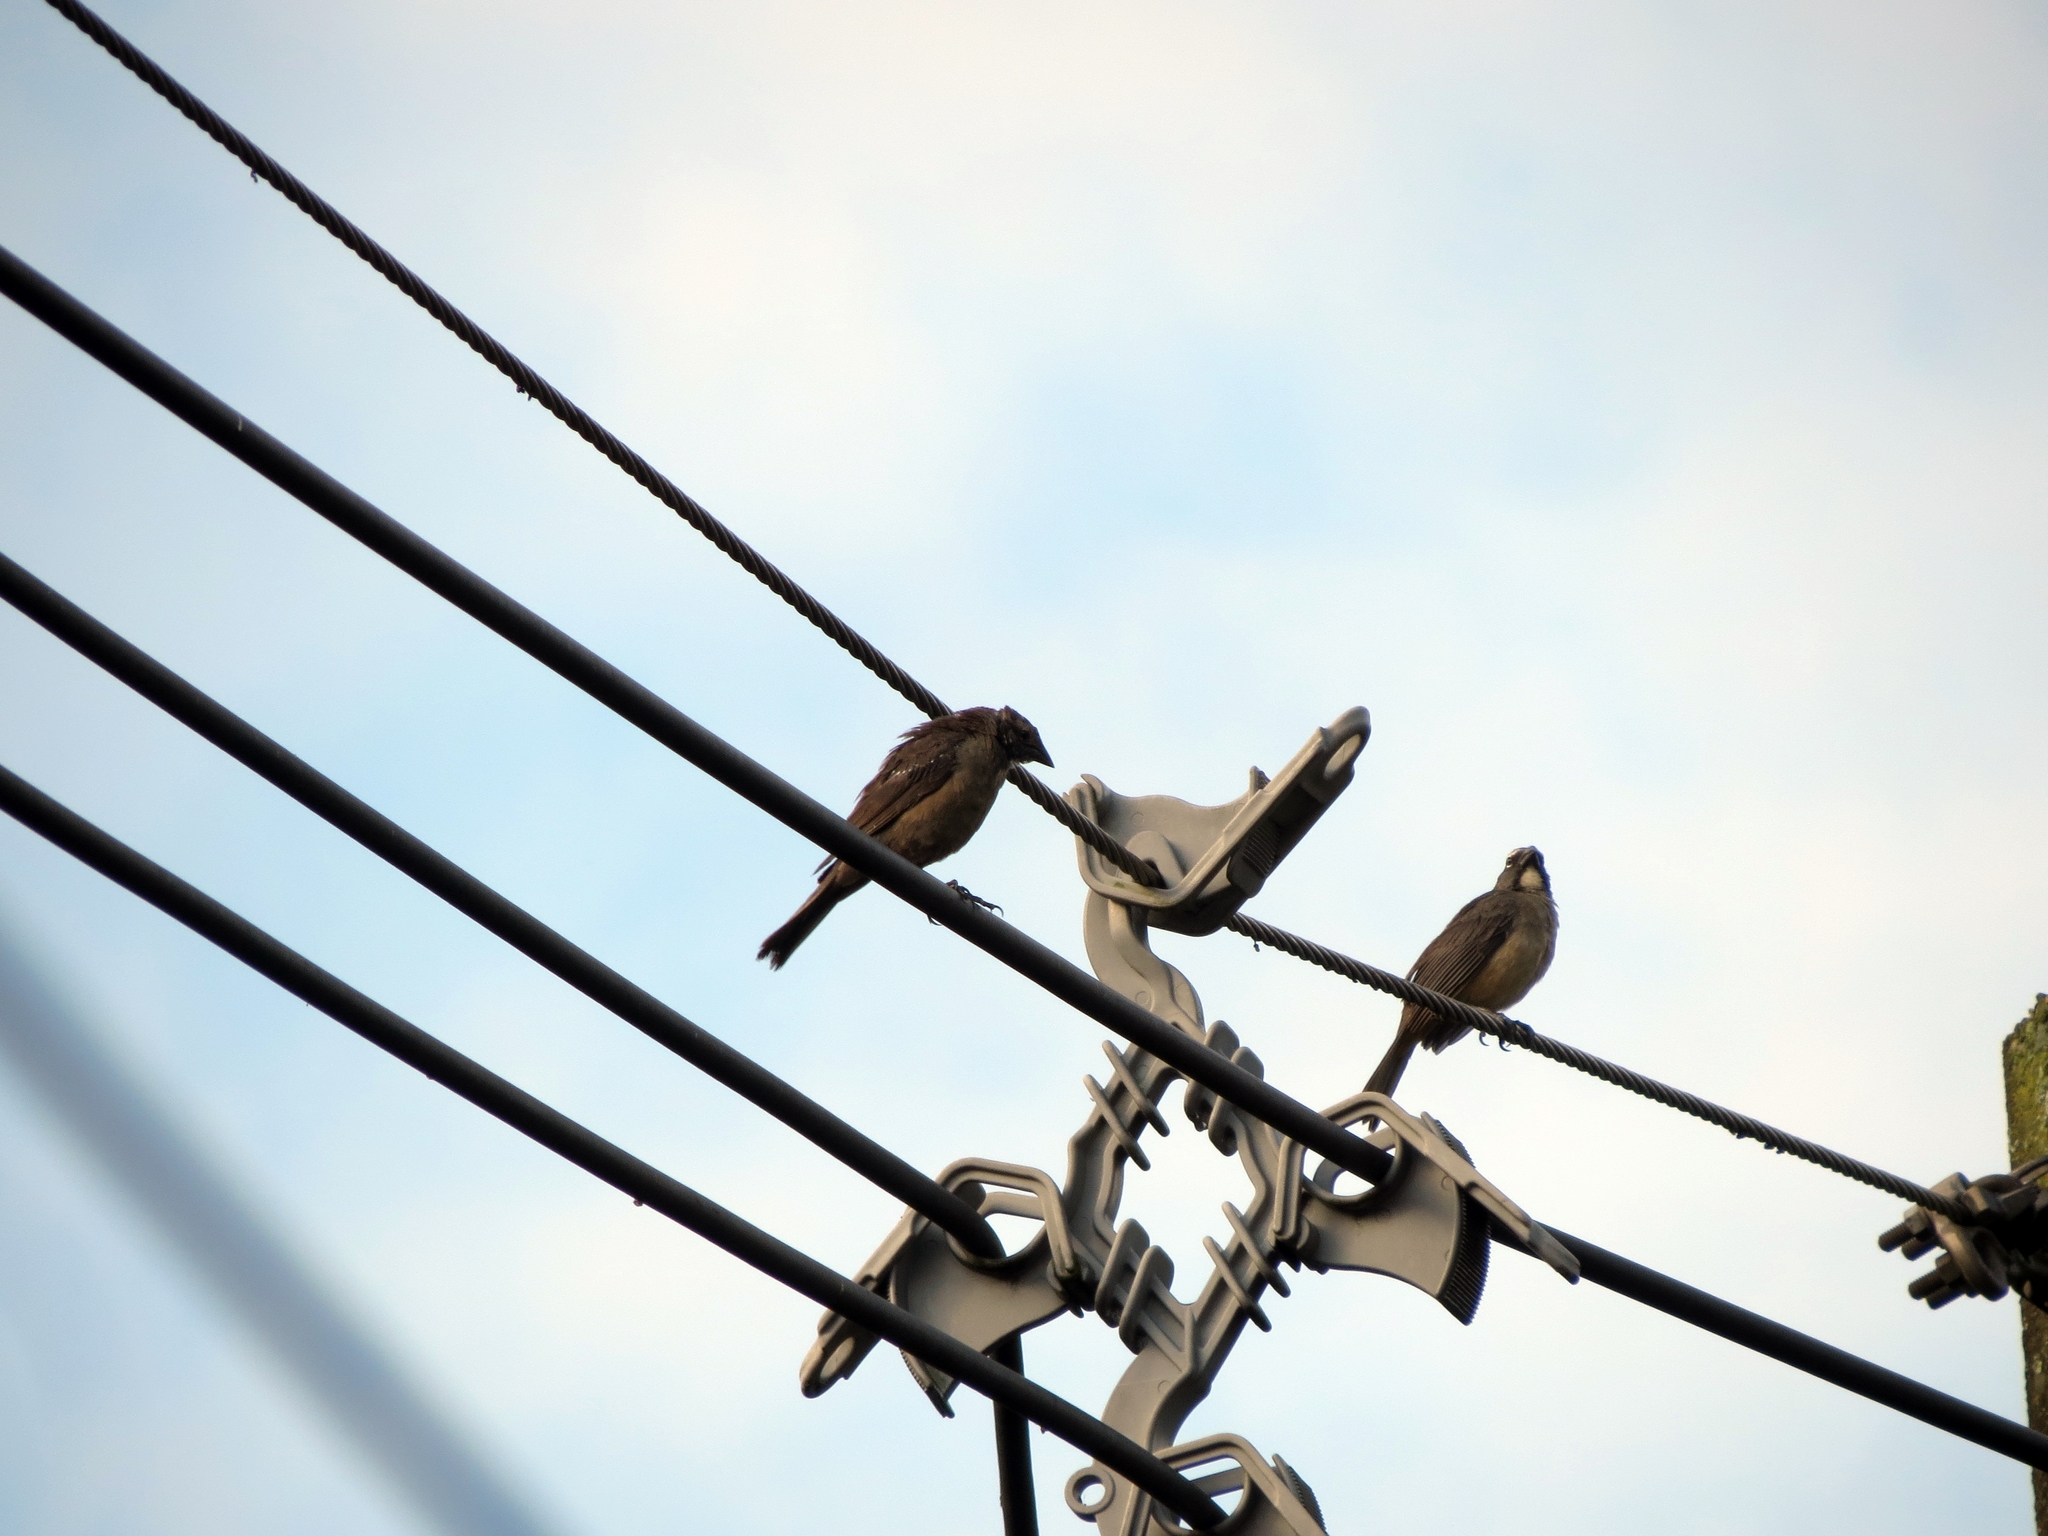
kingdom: Animalia
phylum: Chordata
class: Aves
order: Passeriformes
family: Thraupidae
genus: Saltator
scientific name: Saltator olivascens
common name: Caribbean grey saltator
